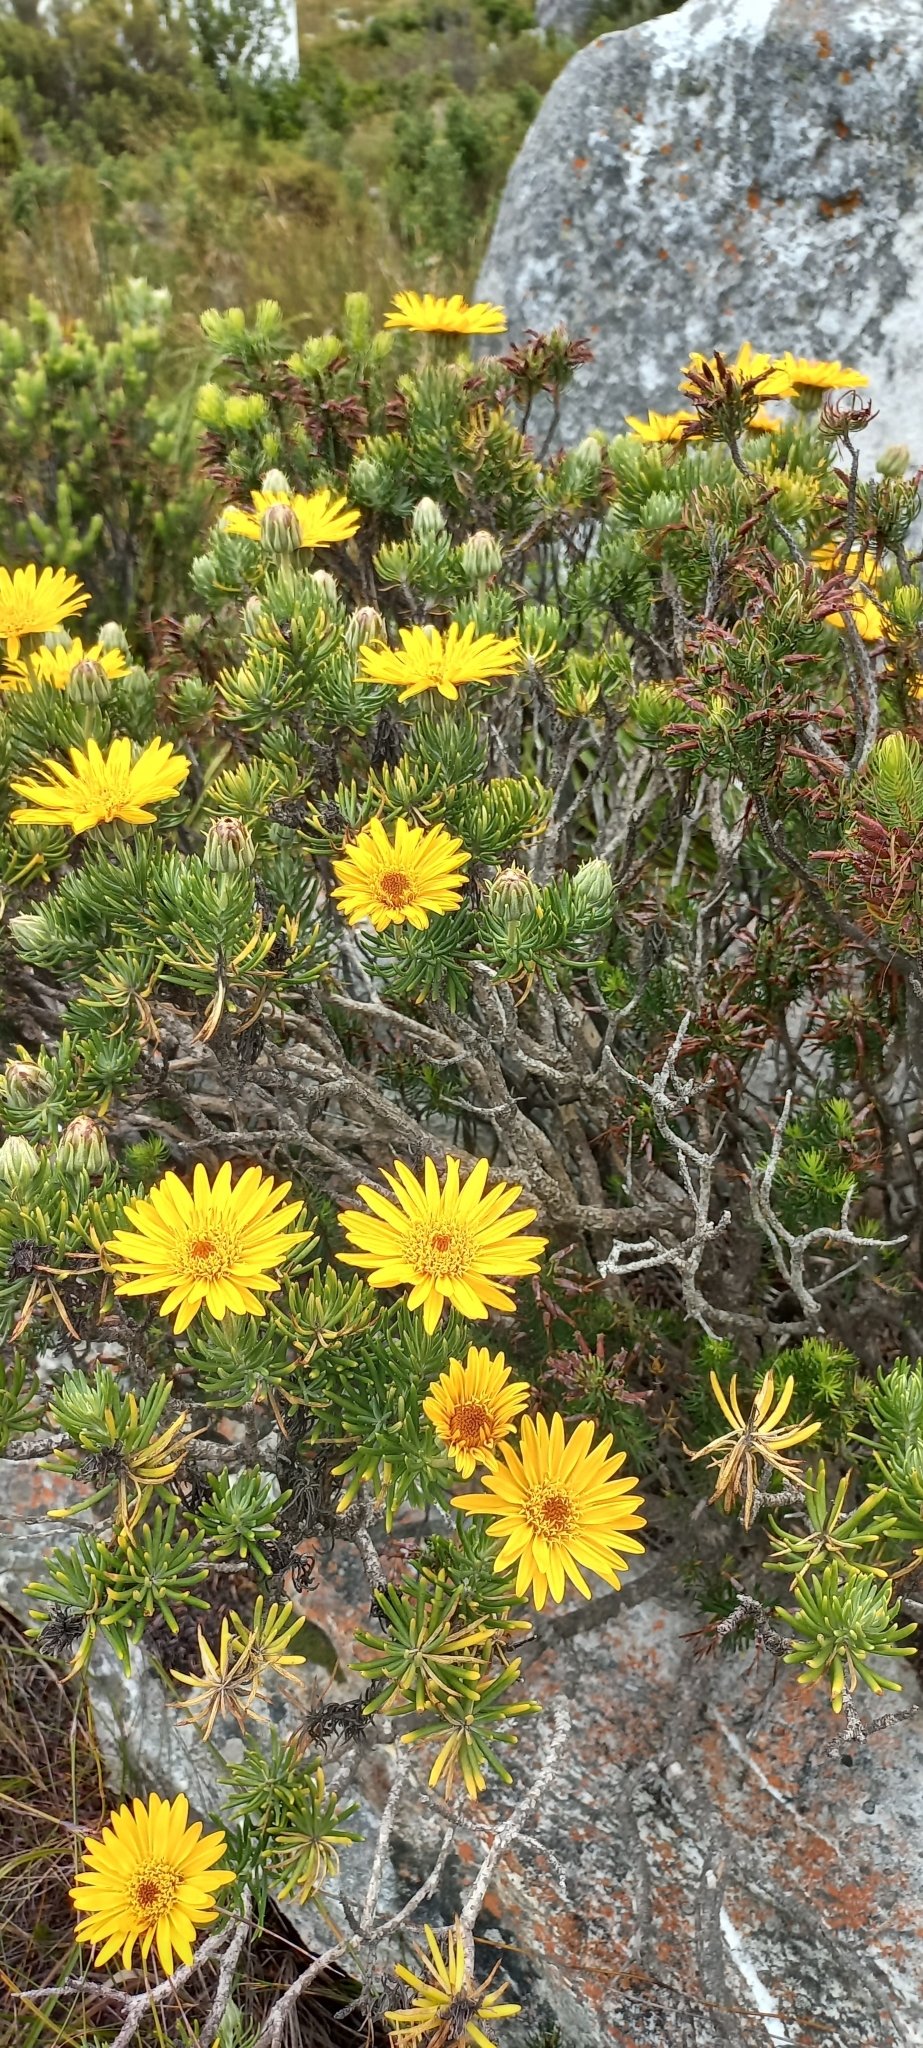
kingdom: Plantae
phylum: Tracheophyta
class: Magnoliopsida
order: Asterales
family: Asteraceae
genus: Heterolepis
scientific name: Heterolepis aliena
